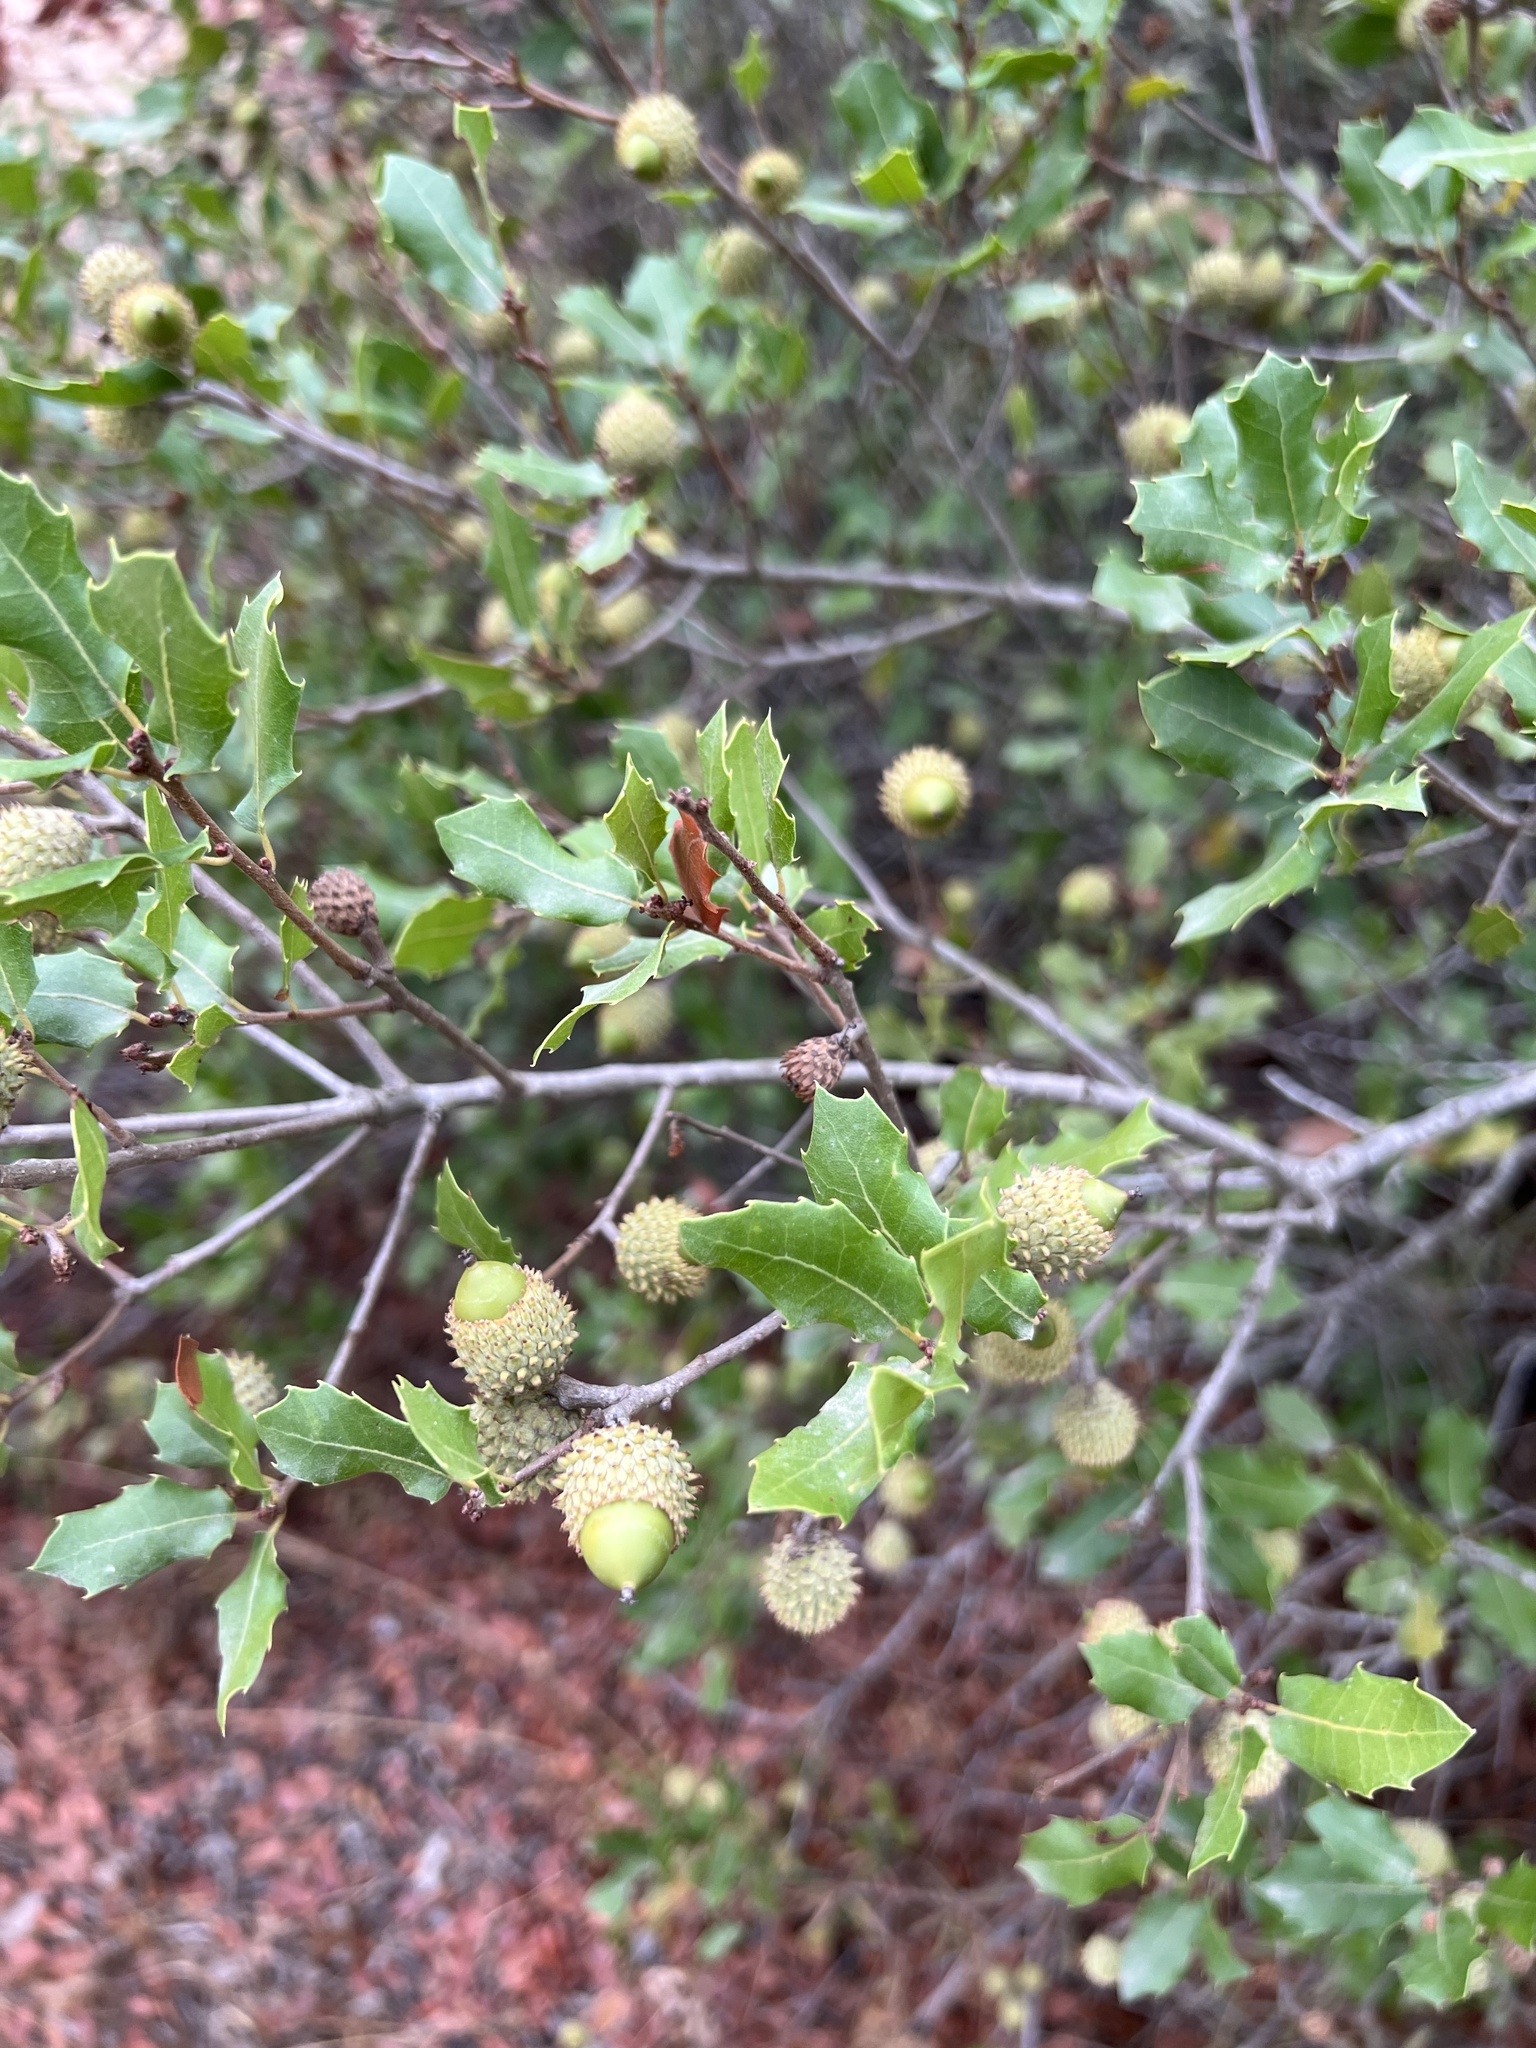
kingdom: Plantae
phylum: Tracheophyta
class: Magnoliopsida
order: Fagales
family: Fagaceae
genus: Quercus
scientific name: Quercus coccifera
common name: Kermes oak
